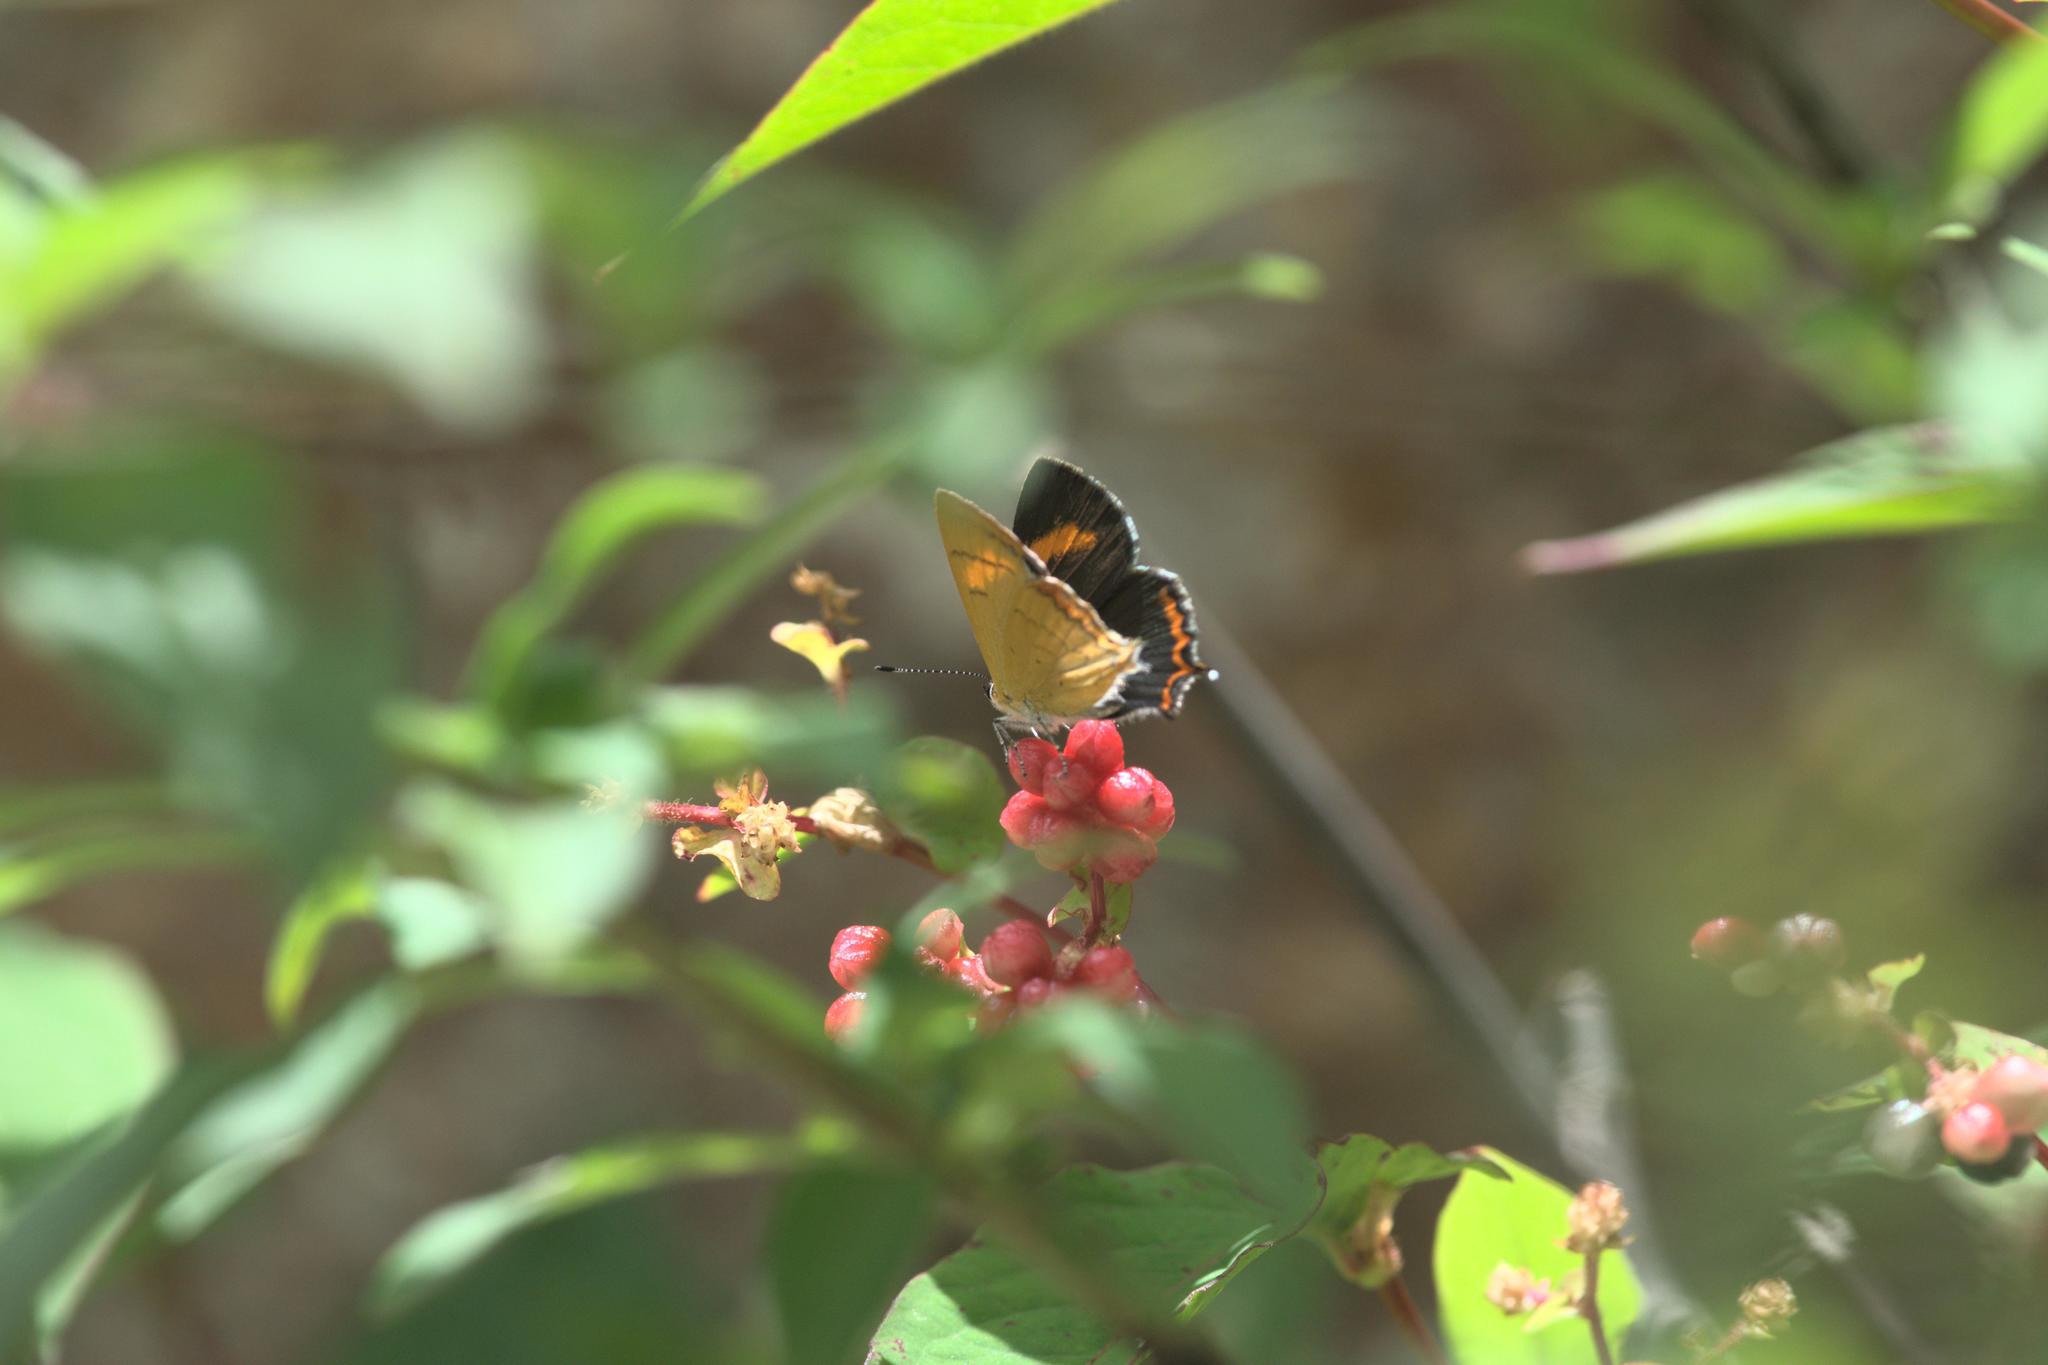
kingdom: Animalia
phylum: Arthropoda
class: Insecta
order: Lepidoptera
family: Lycaenidae
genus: Heliophorus
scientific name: Heliophorus
